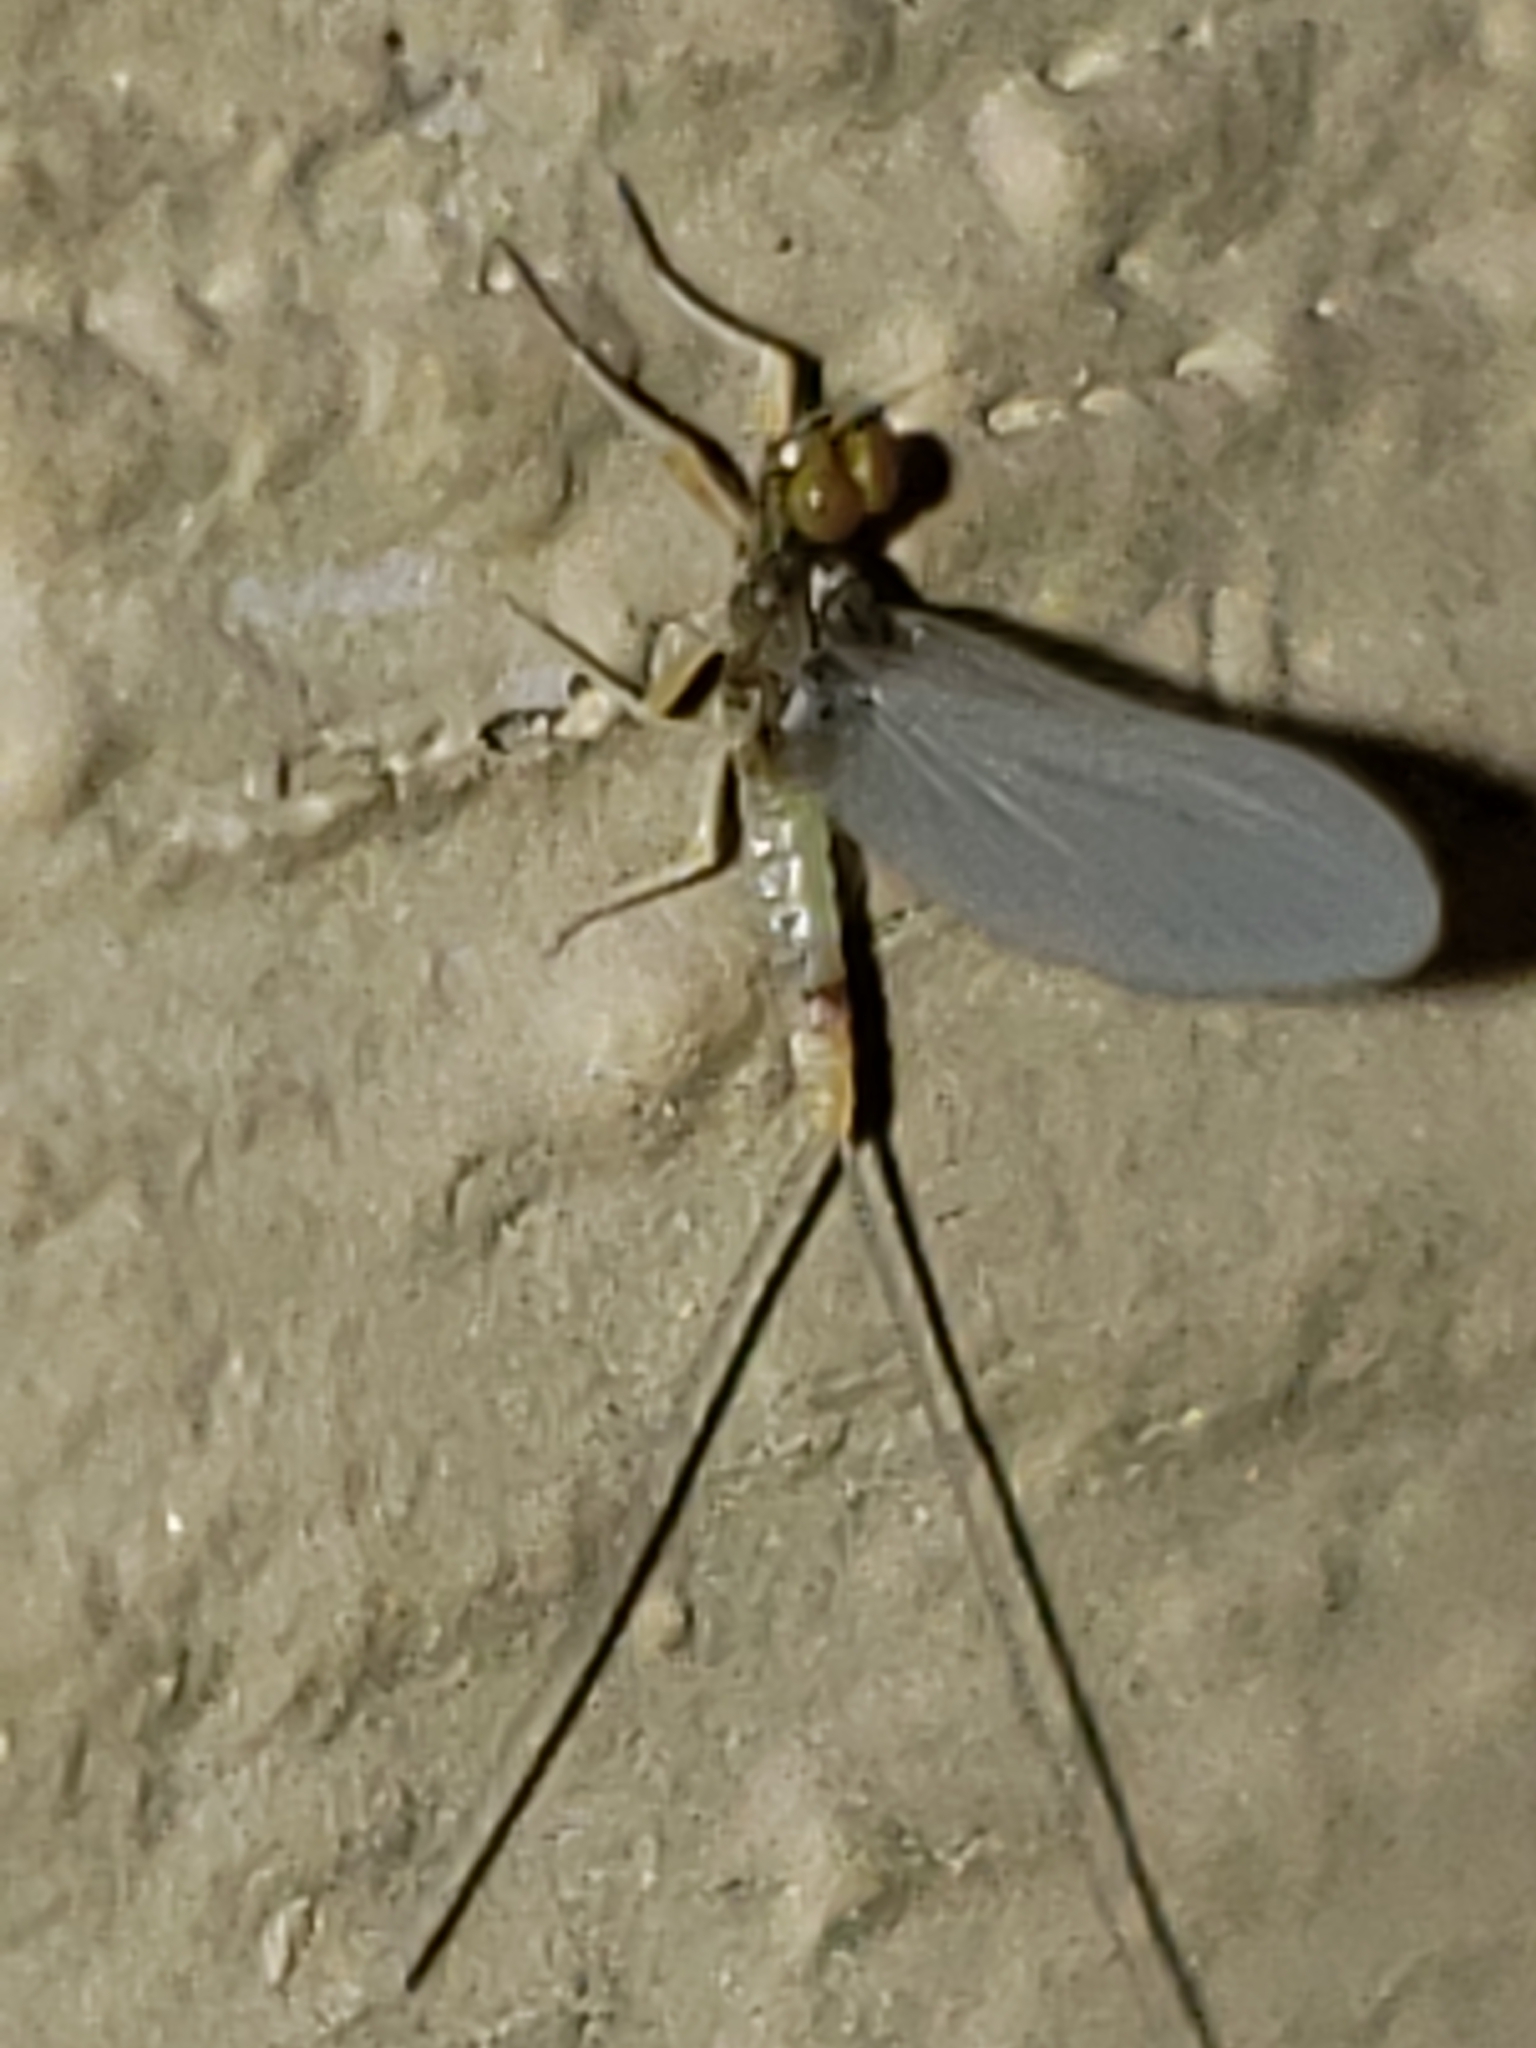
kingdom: Animalia
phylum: Arthropoda
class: Insecta
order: Ephemeroptera
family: Baetidae
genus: Baetis
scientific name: Baetis intercalaris
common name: Small eastern blue-winged olive
